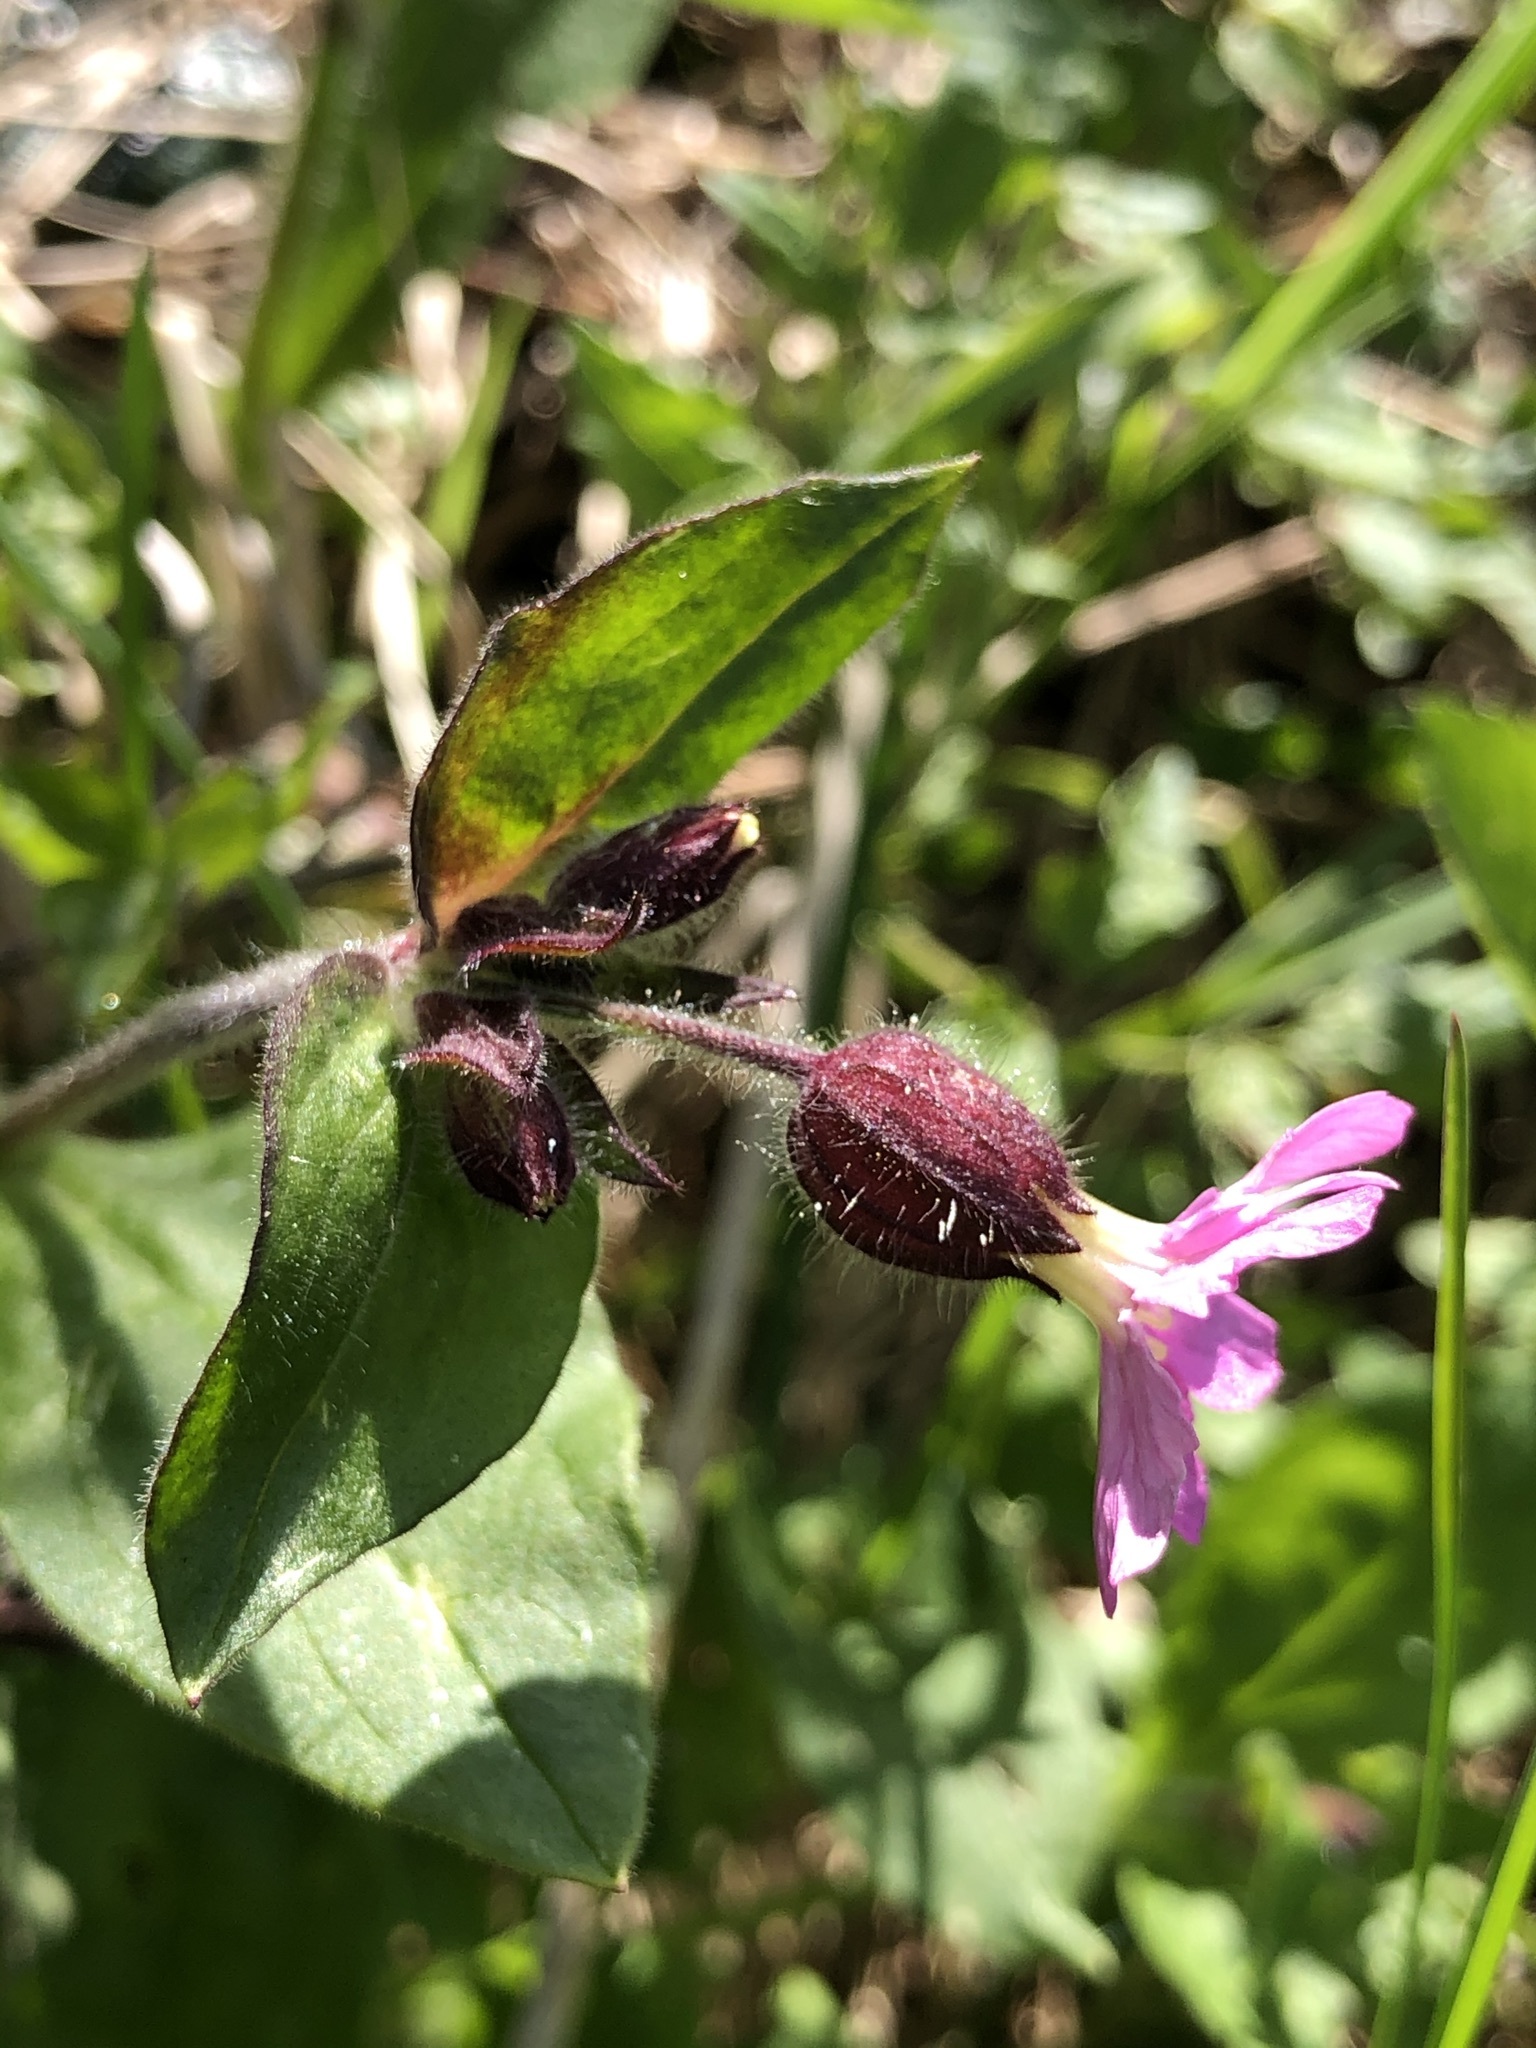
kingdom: Plantae
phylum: Tracheophyta
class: Magnoliopsida
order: Caryophyllales
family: Caryophyllaceae
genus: Silene
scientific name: Silene dioica
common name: Red campion
